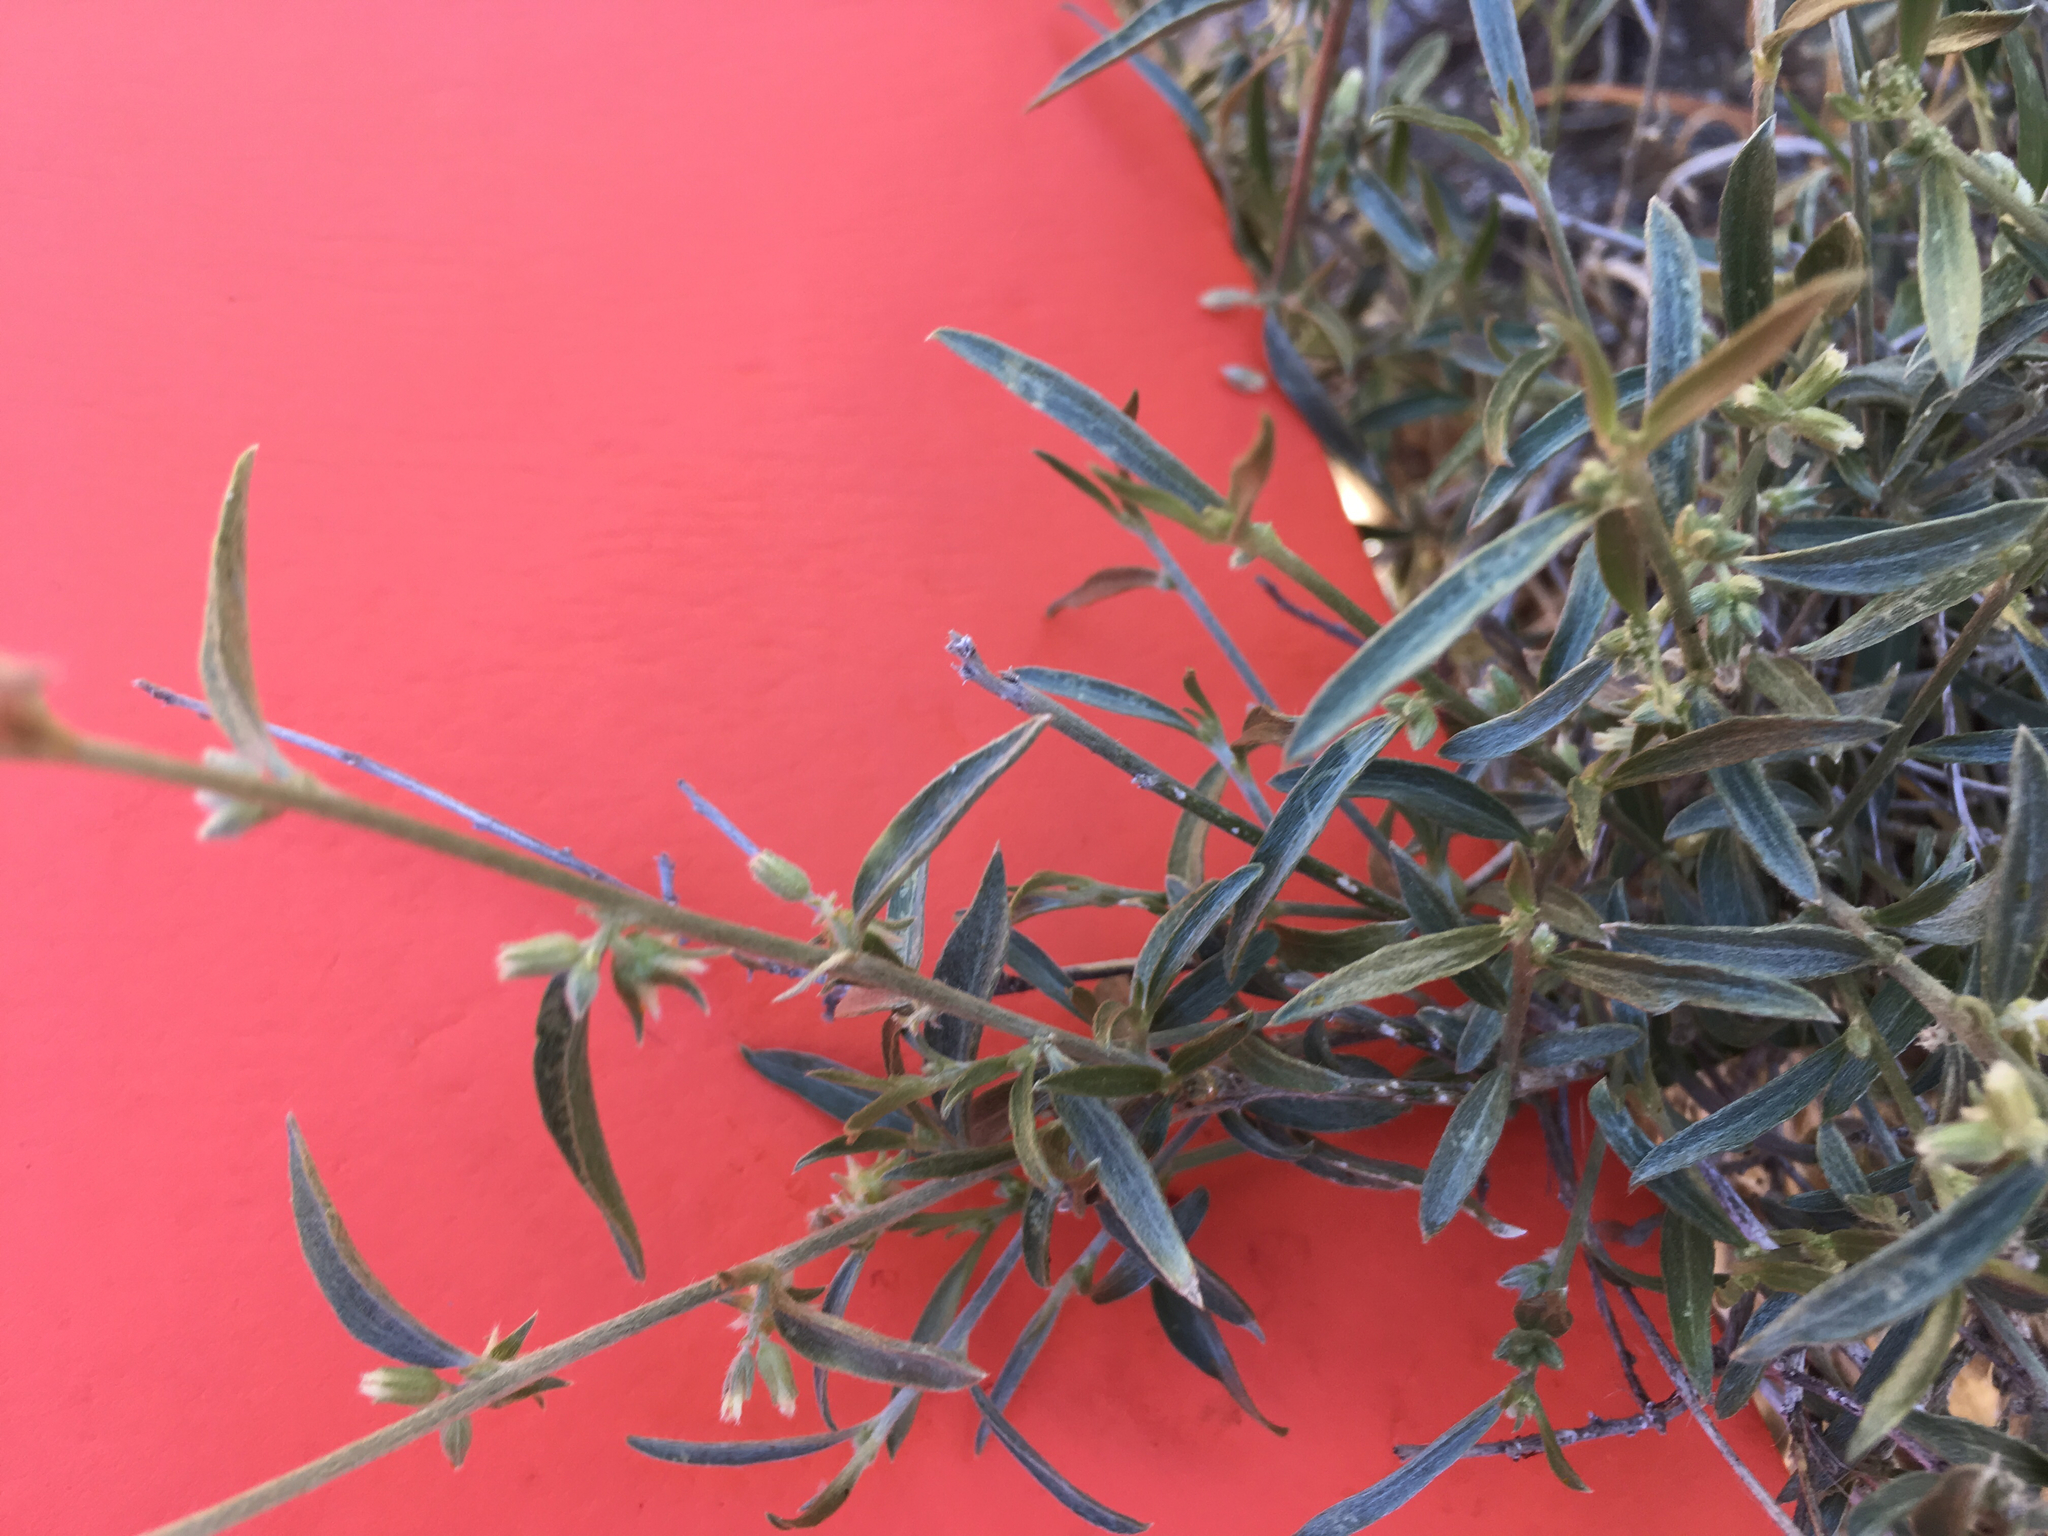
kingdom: Plantae
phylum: Tracheophyta
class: Magnoliopsida
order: Malpighiales
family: Euphorbiaceae
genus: Ditaxis
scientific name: Ditaxis lanceolata
